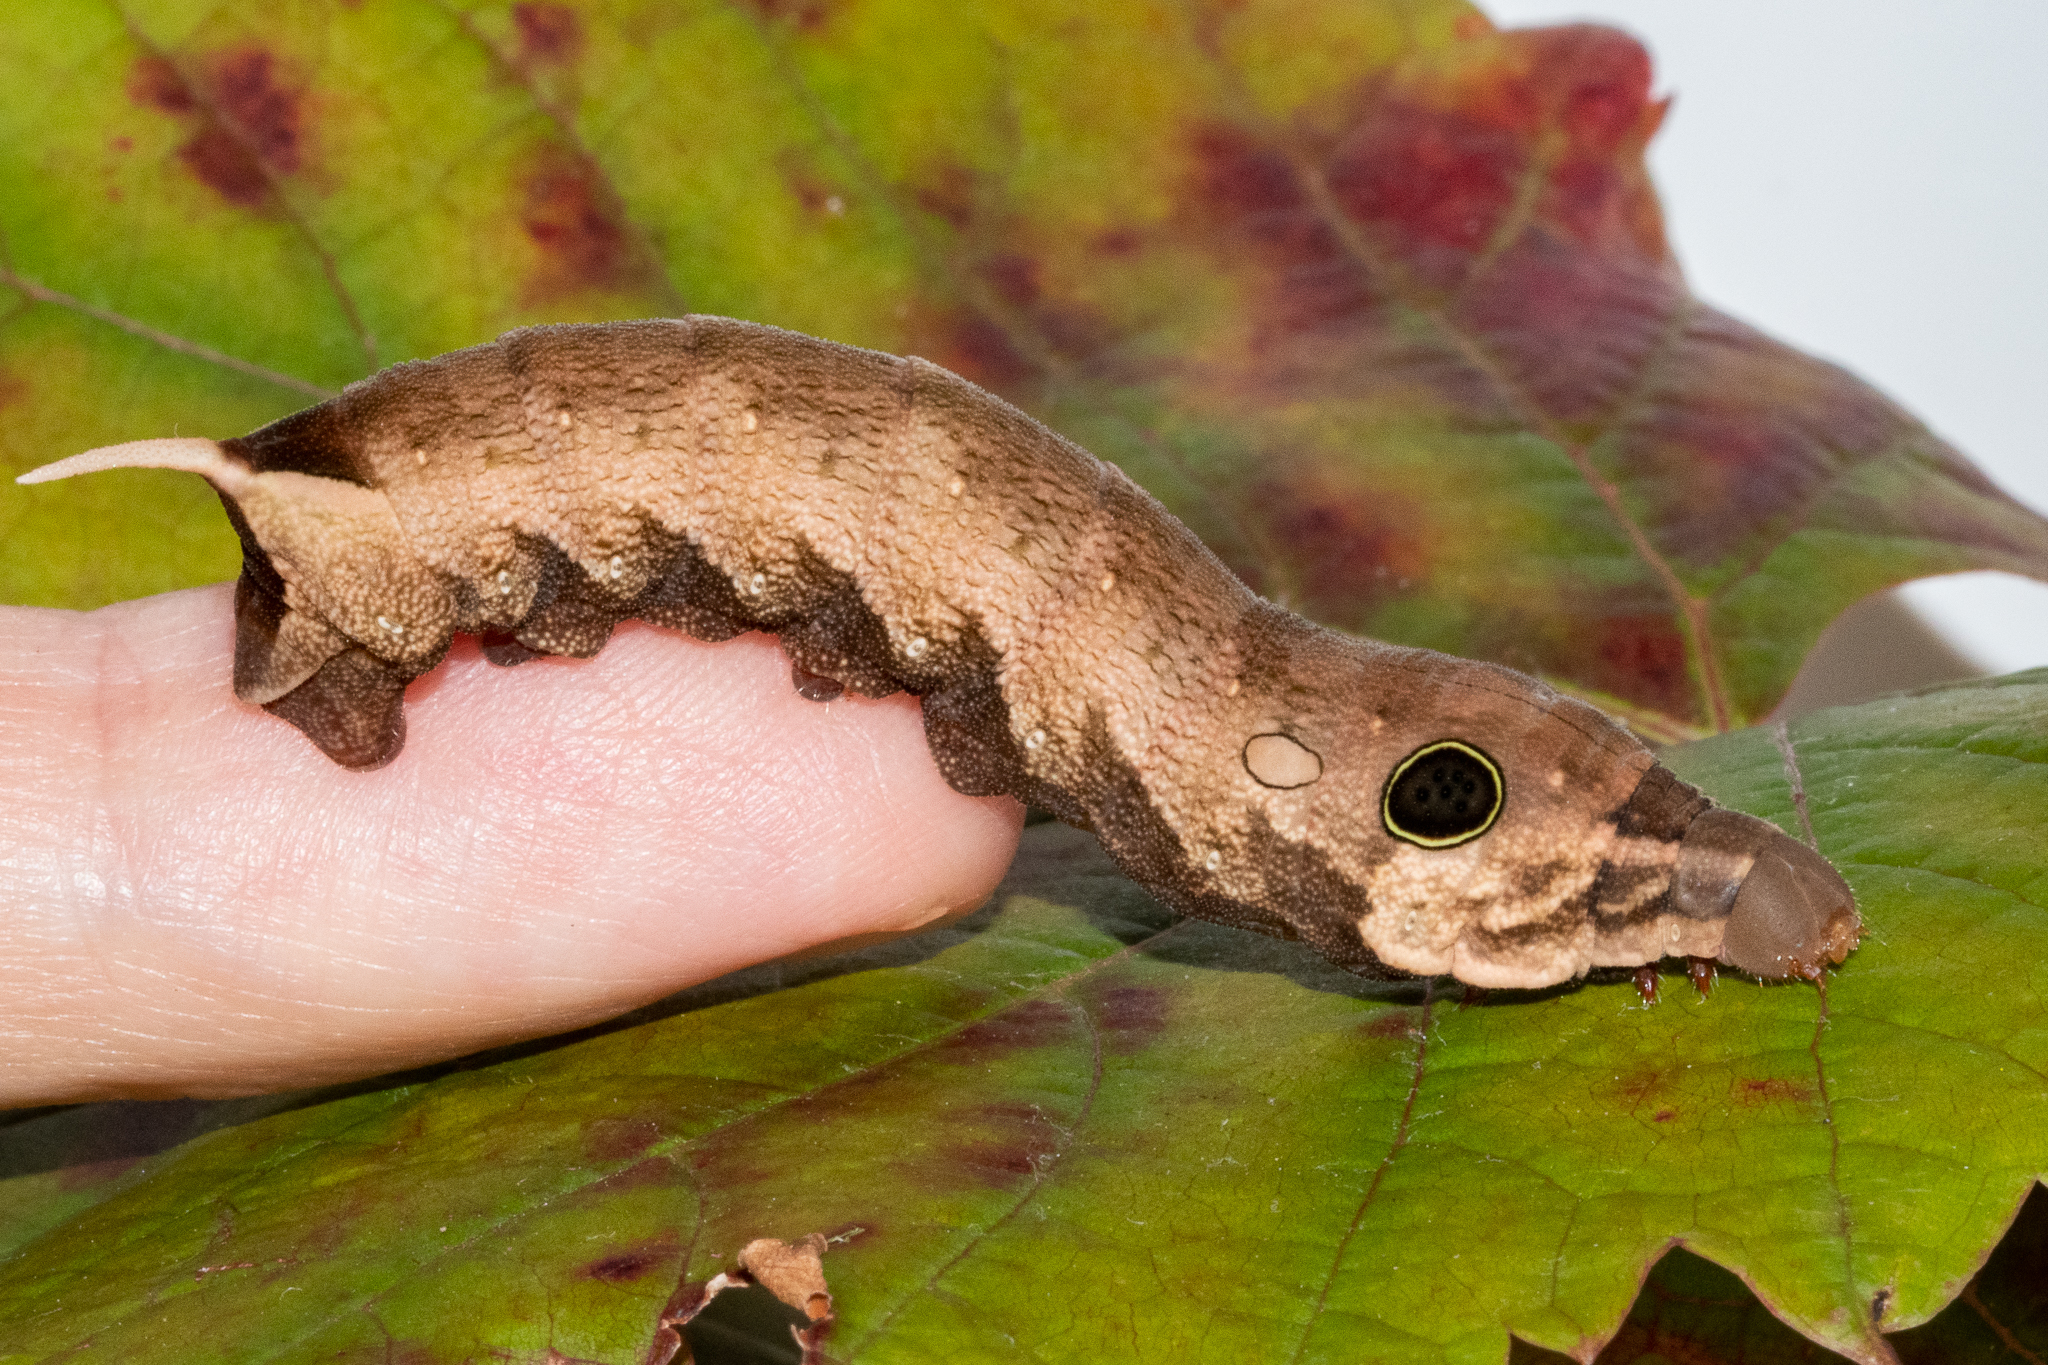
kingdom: Animalia
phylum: Arthropoda
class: Insecta
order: Lepidoptera
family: Sphingidae
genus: Hippotion
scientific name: Hippotion eson
